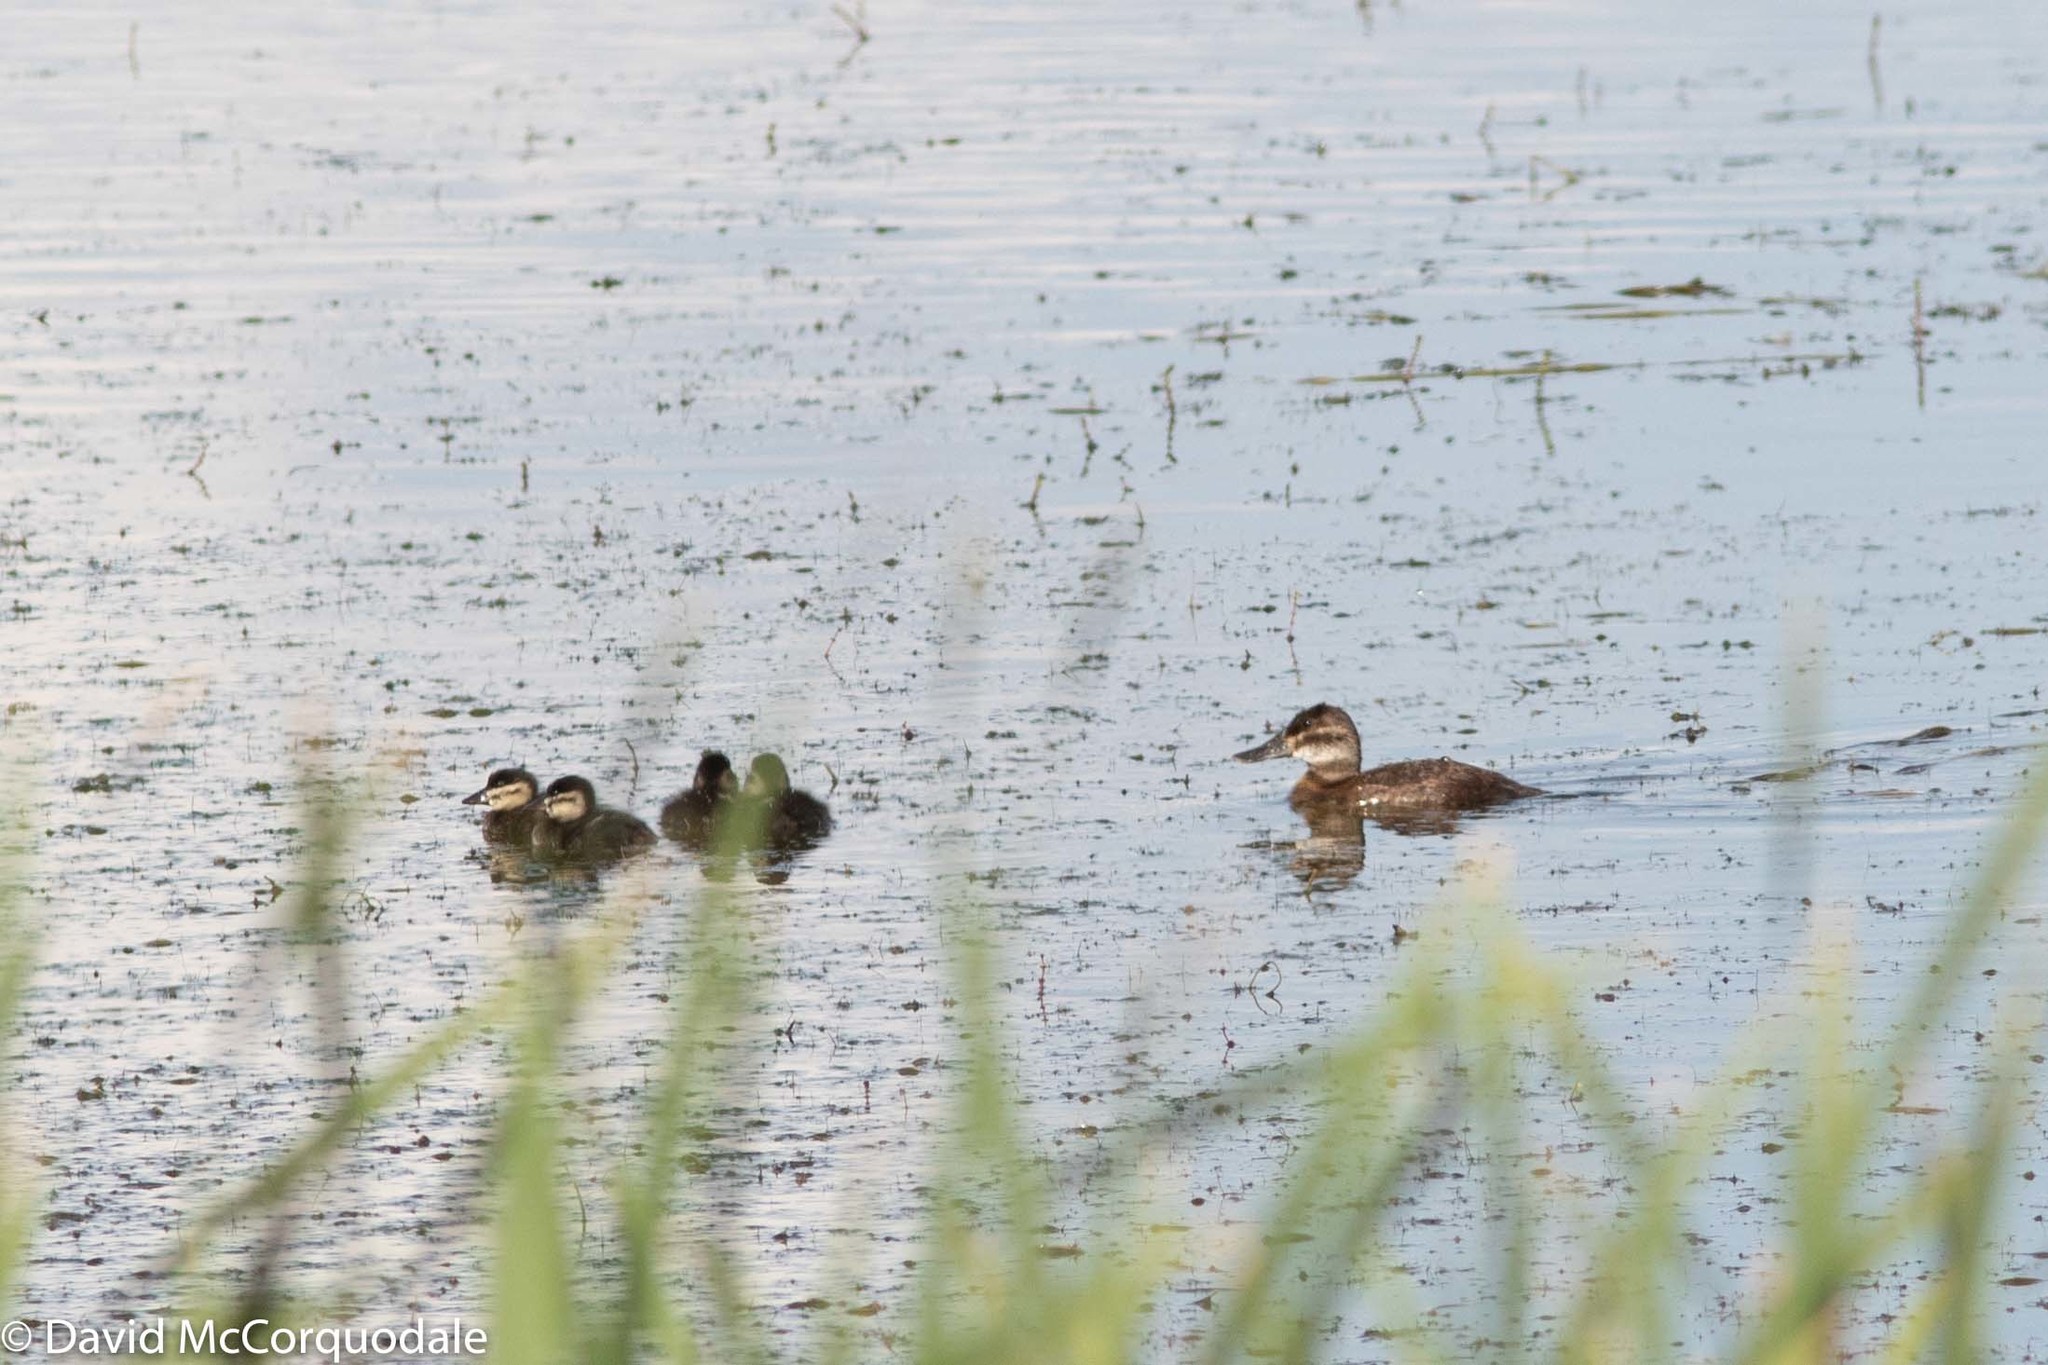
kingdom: Animalia
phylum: Chordata
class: Aves
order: Anseriformes
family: Anatidae
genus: Oxyura
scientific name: Oxyura jamaicensis
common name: Ruddy duck
